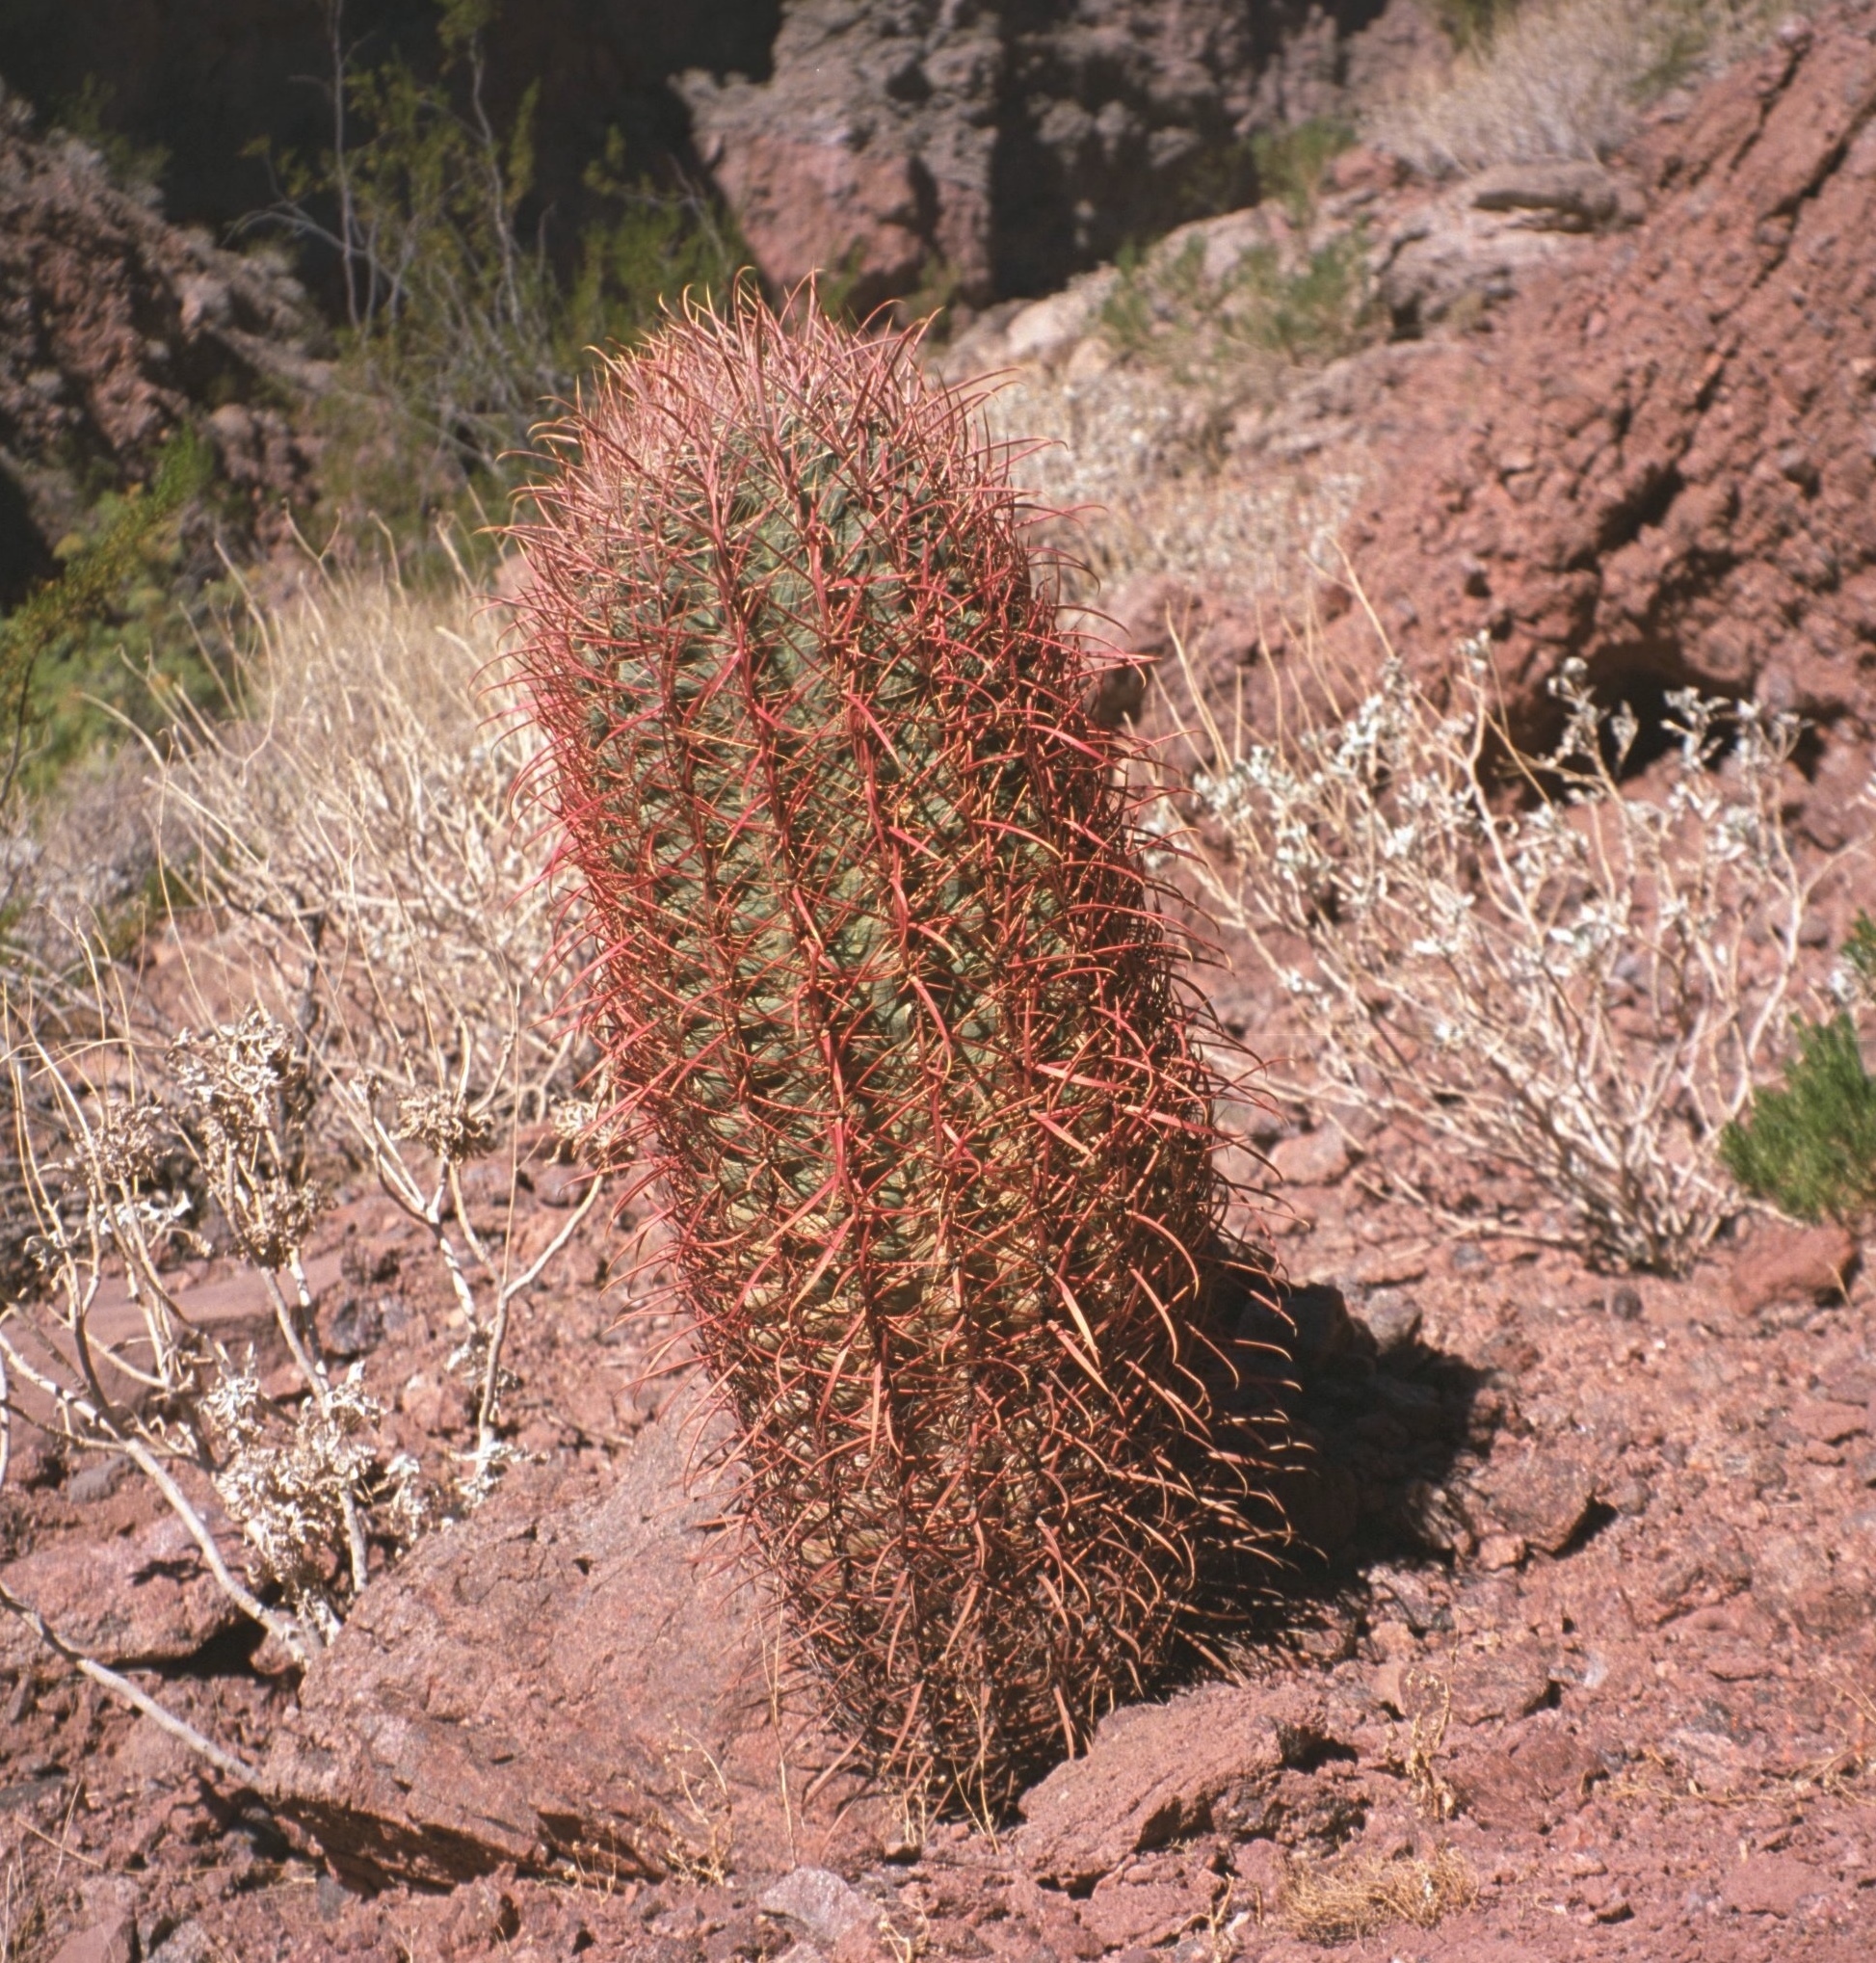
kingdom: Plantae
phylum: Tracheophyta
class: Magnoliopsida
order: Caryophyllales
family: Cactaceae
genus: Ferocactus
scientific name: Ferocactus cylindraceus
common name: California barrel cactus
